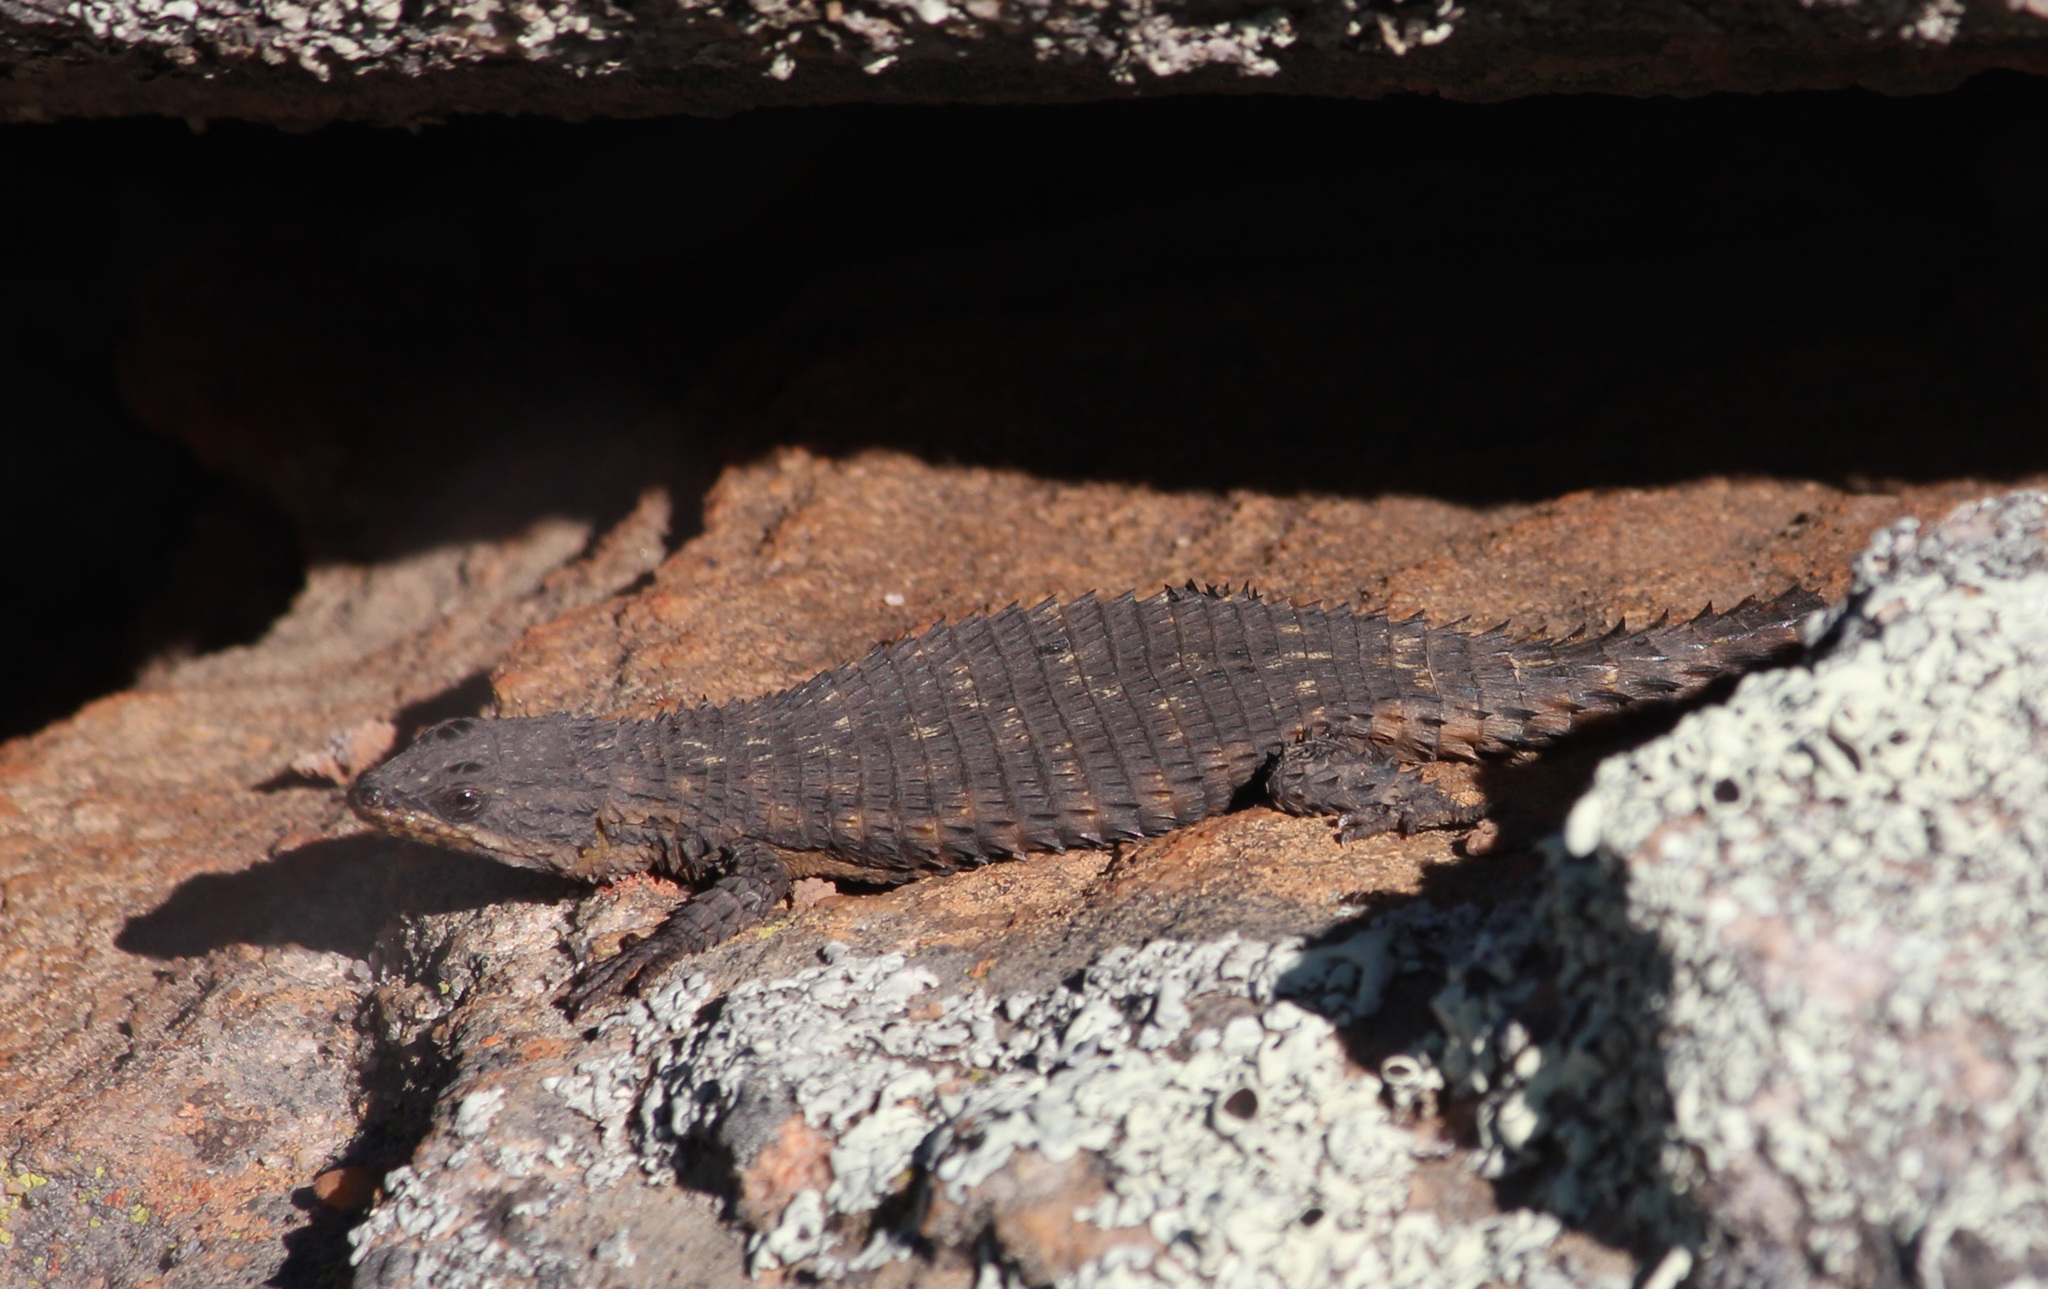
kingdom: Animalia
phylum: Chordata
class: Squamata
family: Cordylidae
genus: Cordylus
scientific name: Cordylus mclachlani
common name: Mclachlan's girdled lizard
